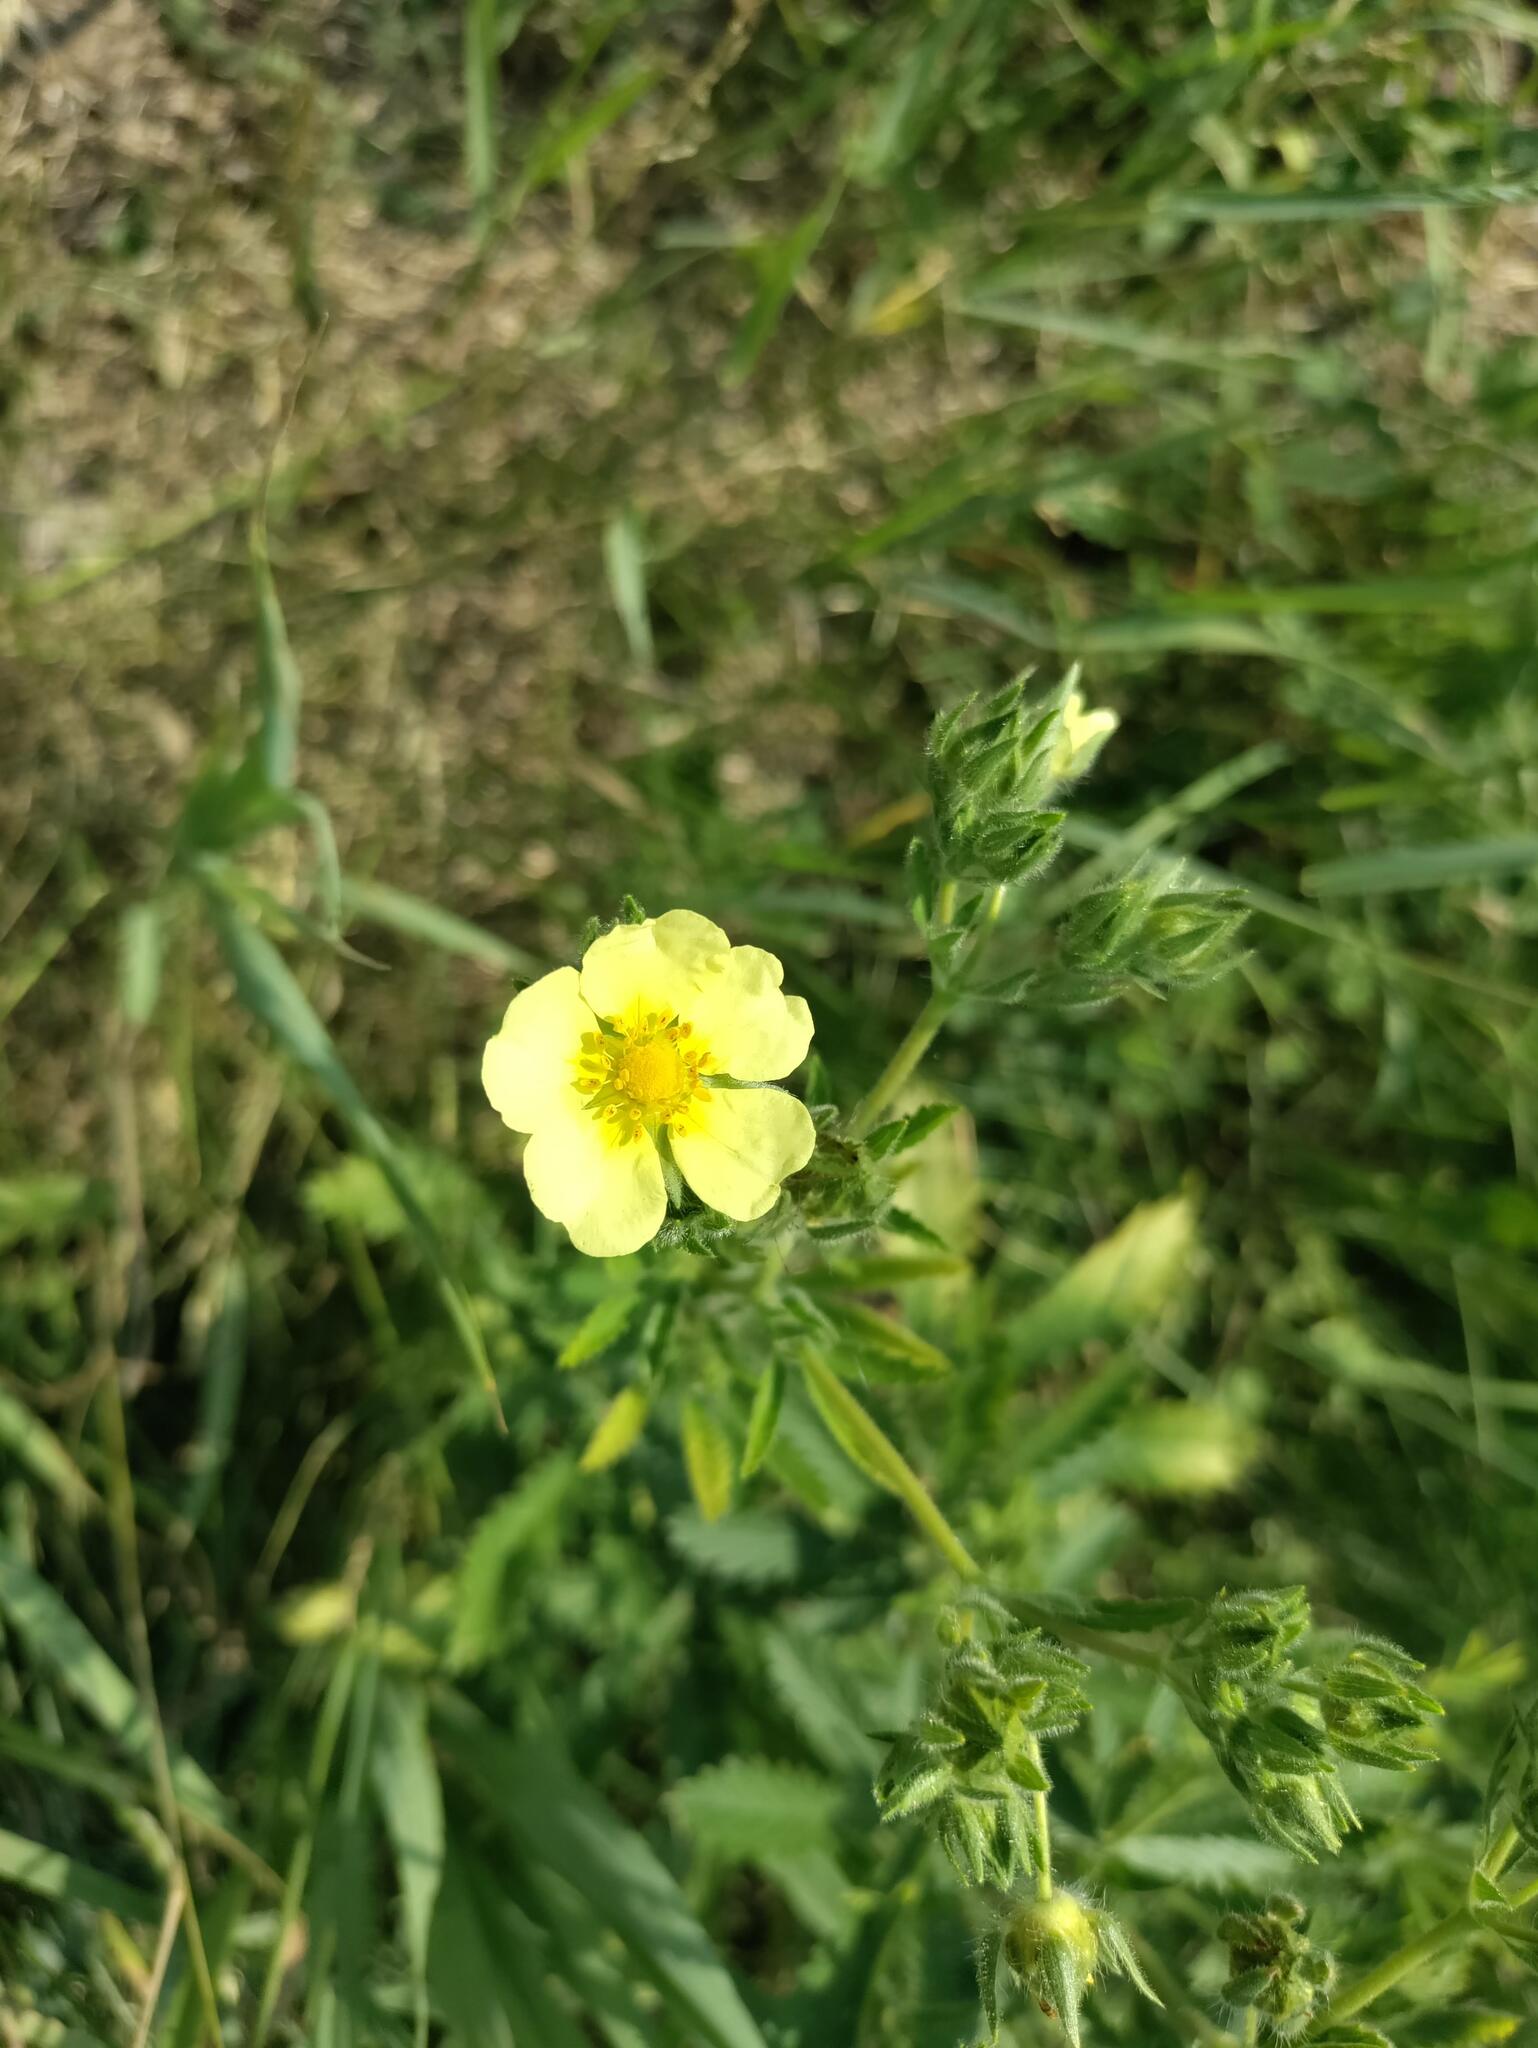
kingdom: Plantae
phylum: Tracheophyta
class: Magnoliopsida
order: Rosales
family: Rosaceae
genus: Potentilla
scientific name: Potentilla recta
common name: Sulphur cinquefoil
